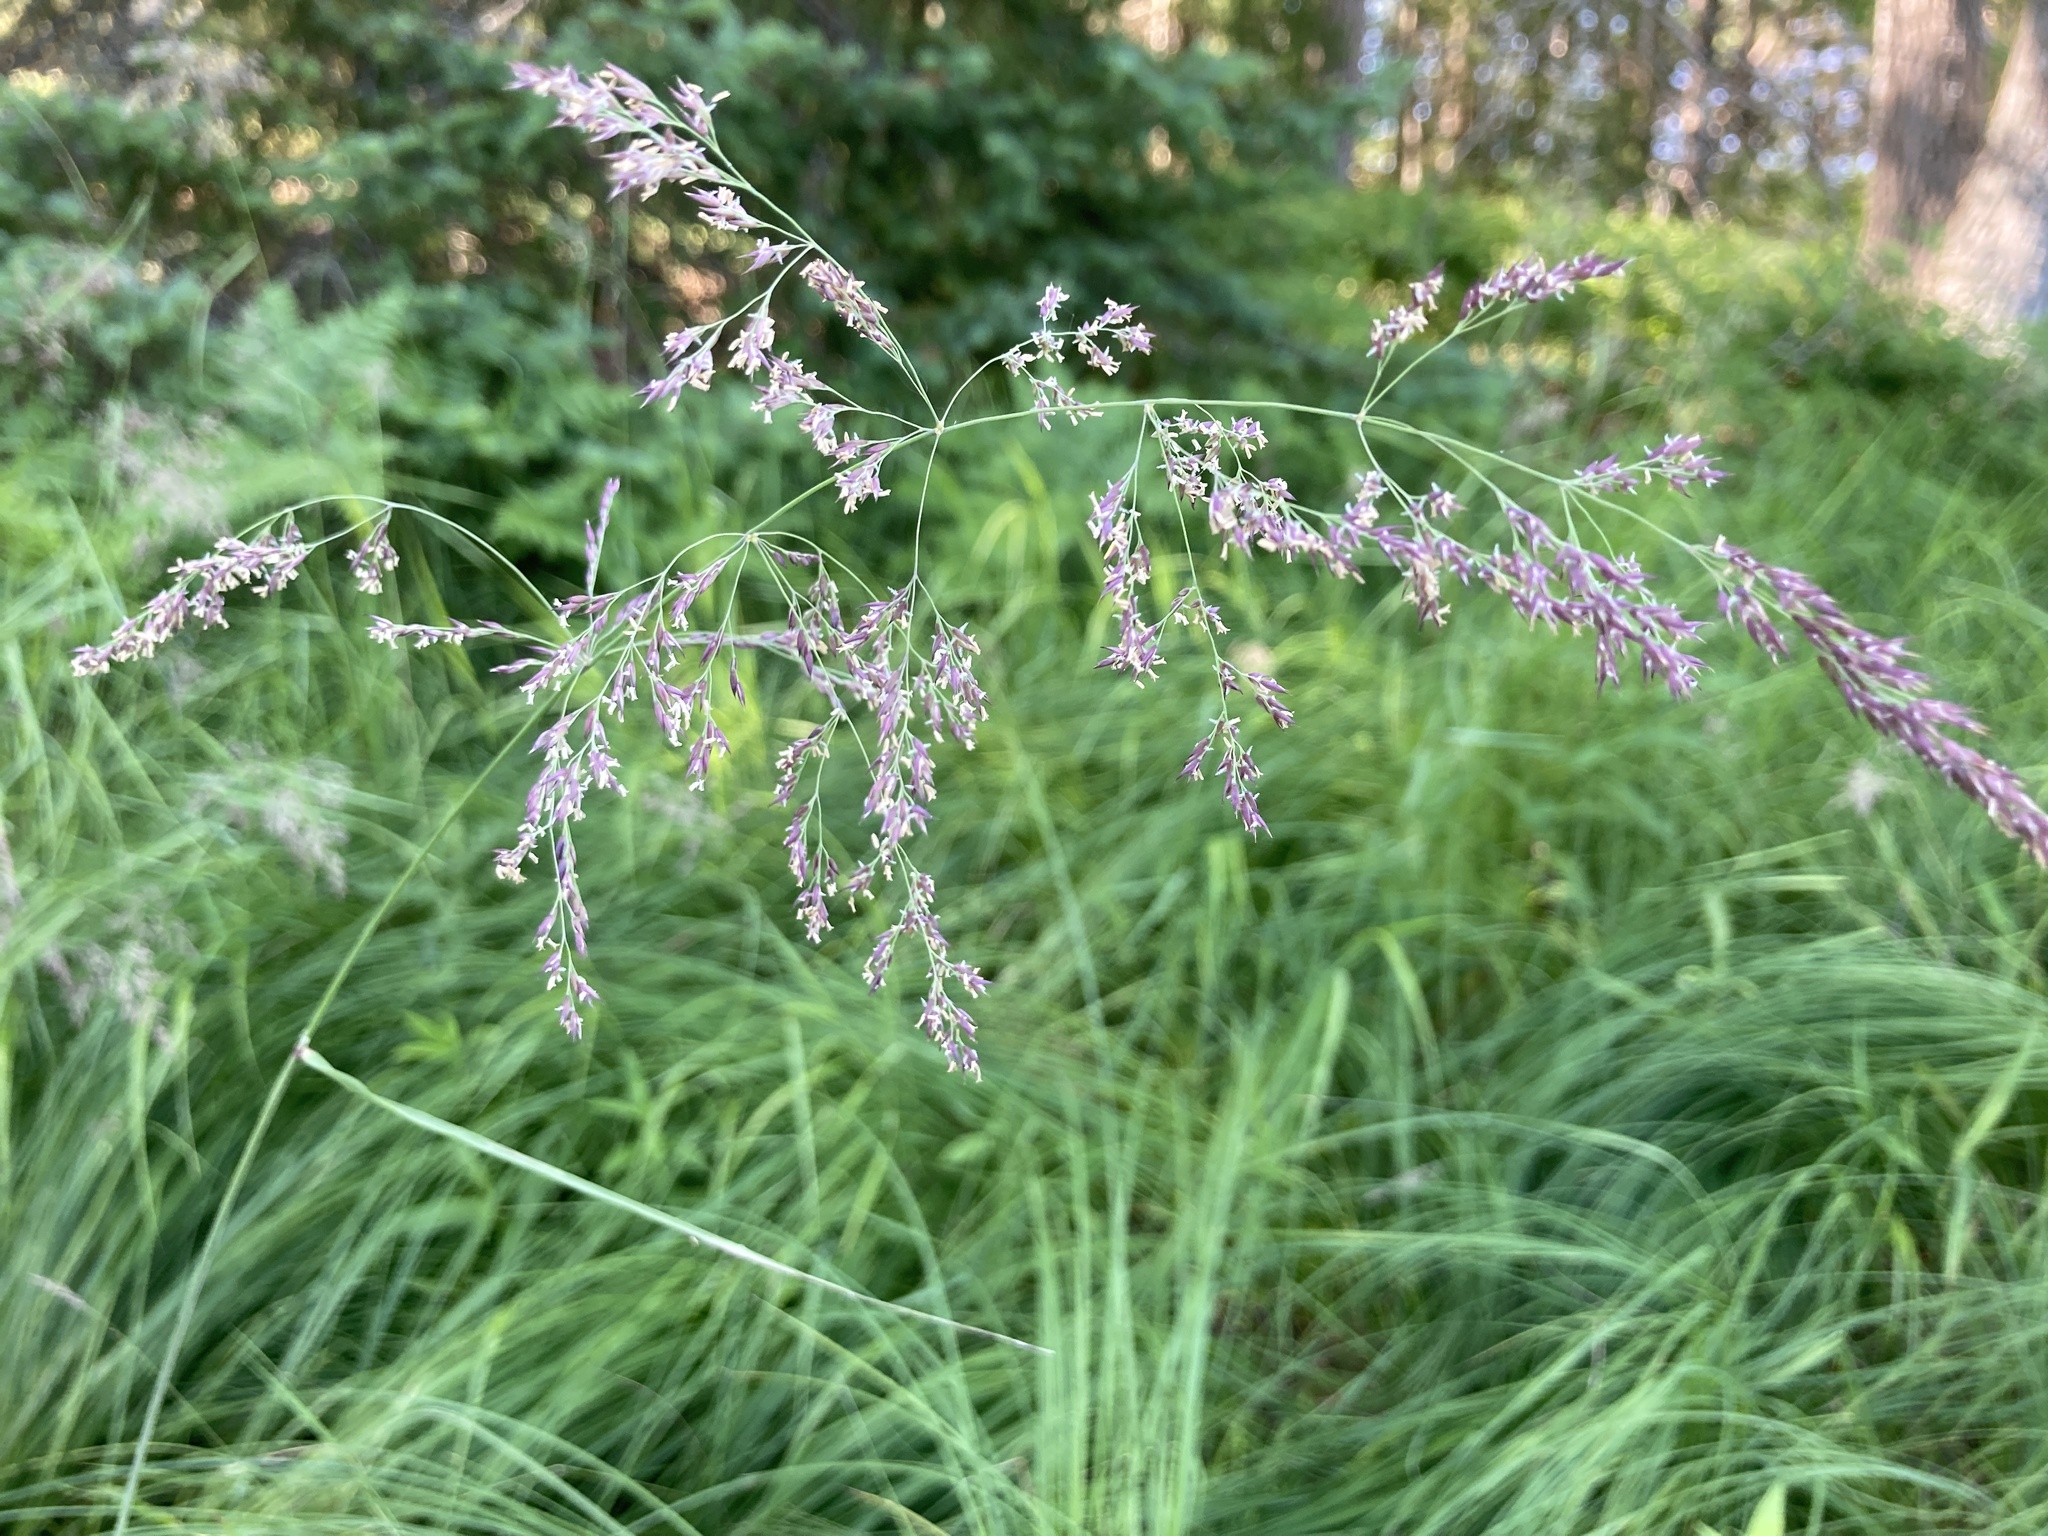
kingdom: Plantae
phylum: Tracheophyta
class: Liliopsida
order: Poales
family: Poaceae
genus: Calamagrostis
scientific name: Calamagrostis canadensis
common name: Canada bluejoint
